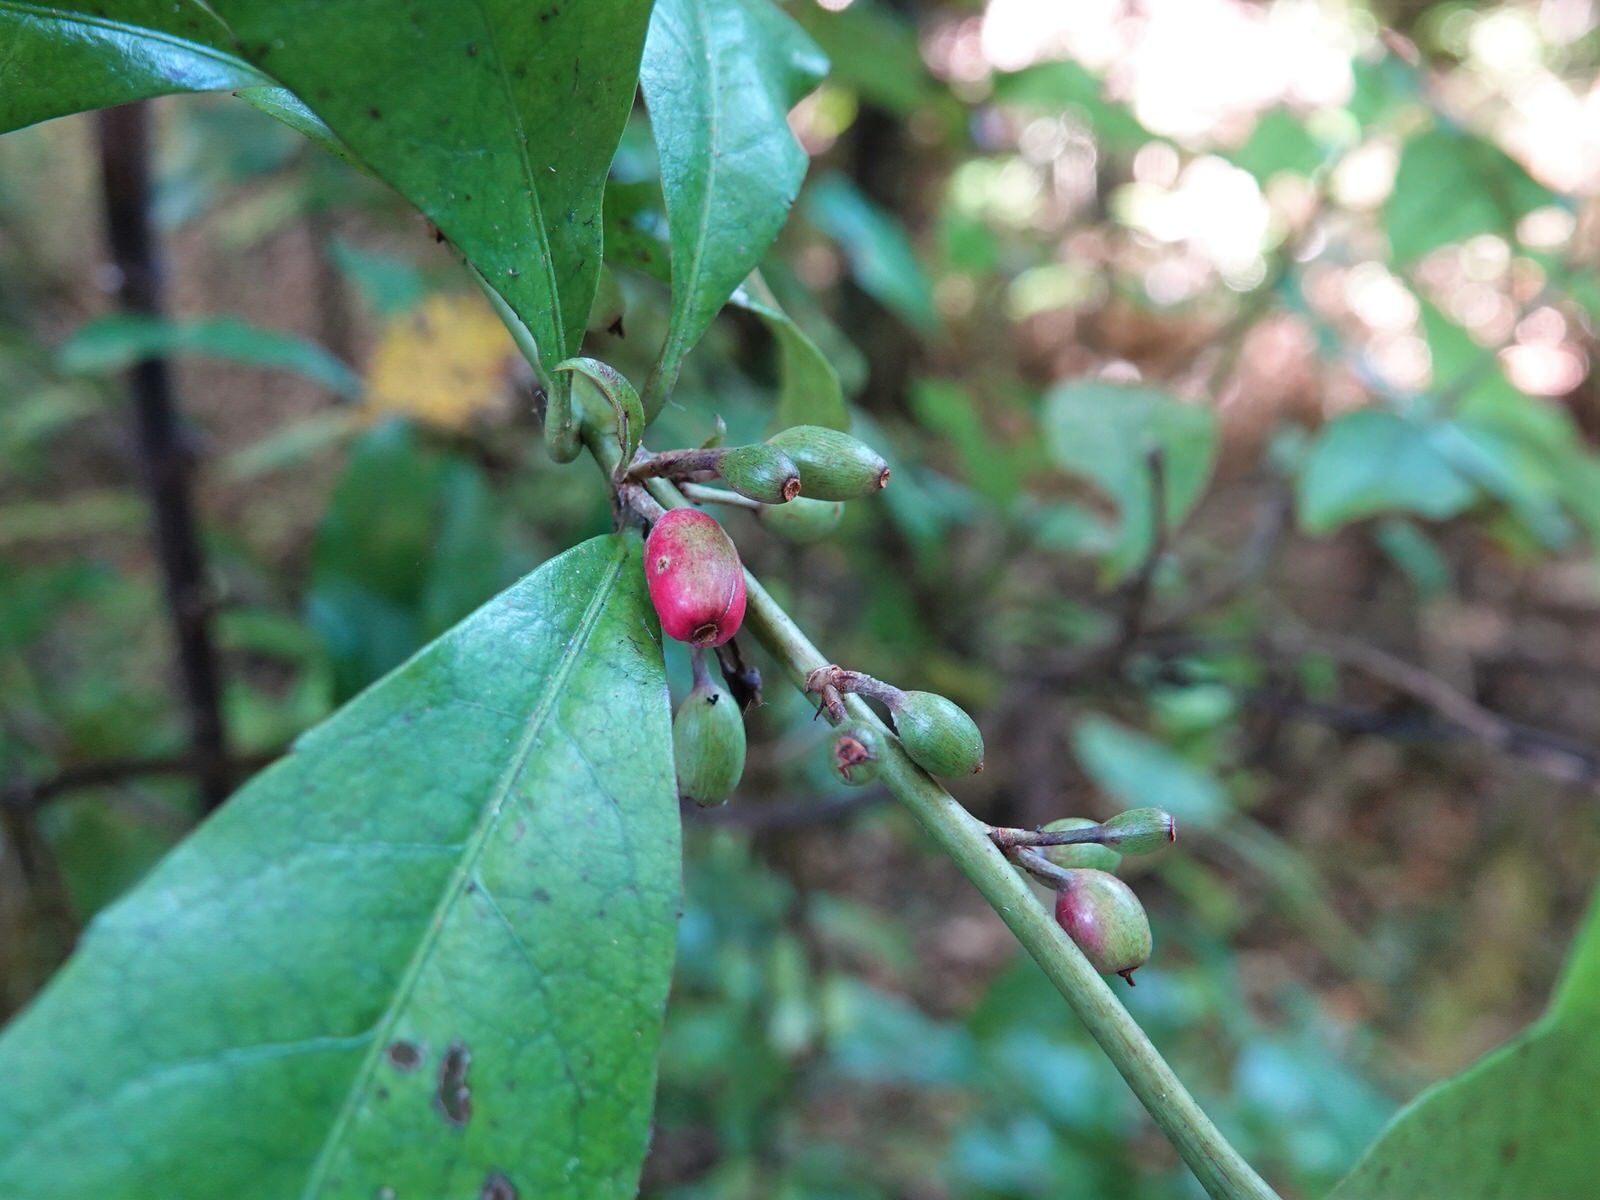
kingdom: Plantae
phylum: Tracheophyta
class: Magnoliopsida
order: Asterales
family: Alseuosmiaceae
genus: Alseuosmia
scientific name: Alseuosmia macrophylla
